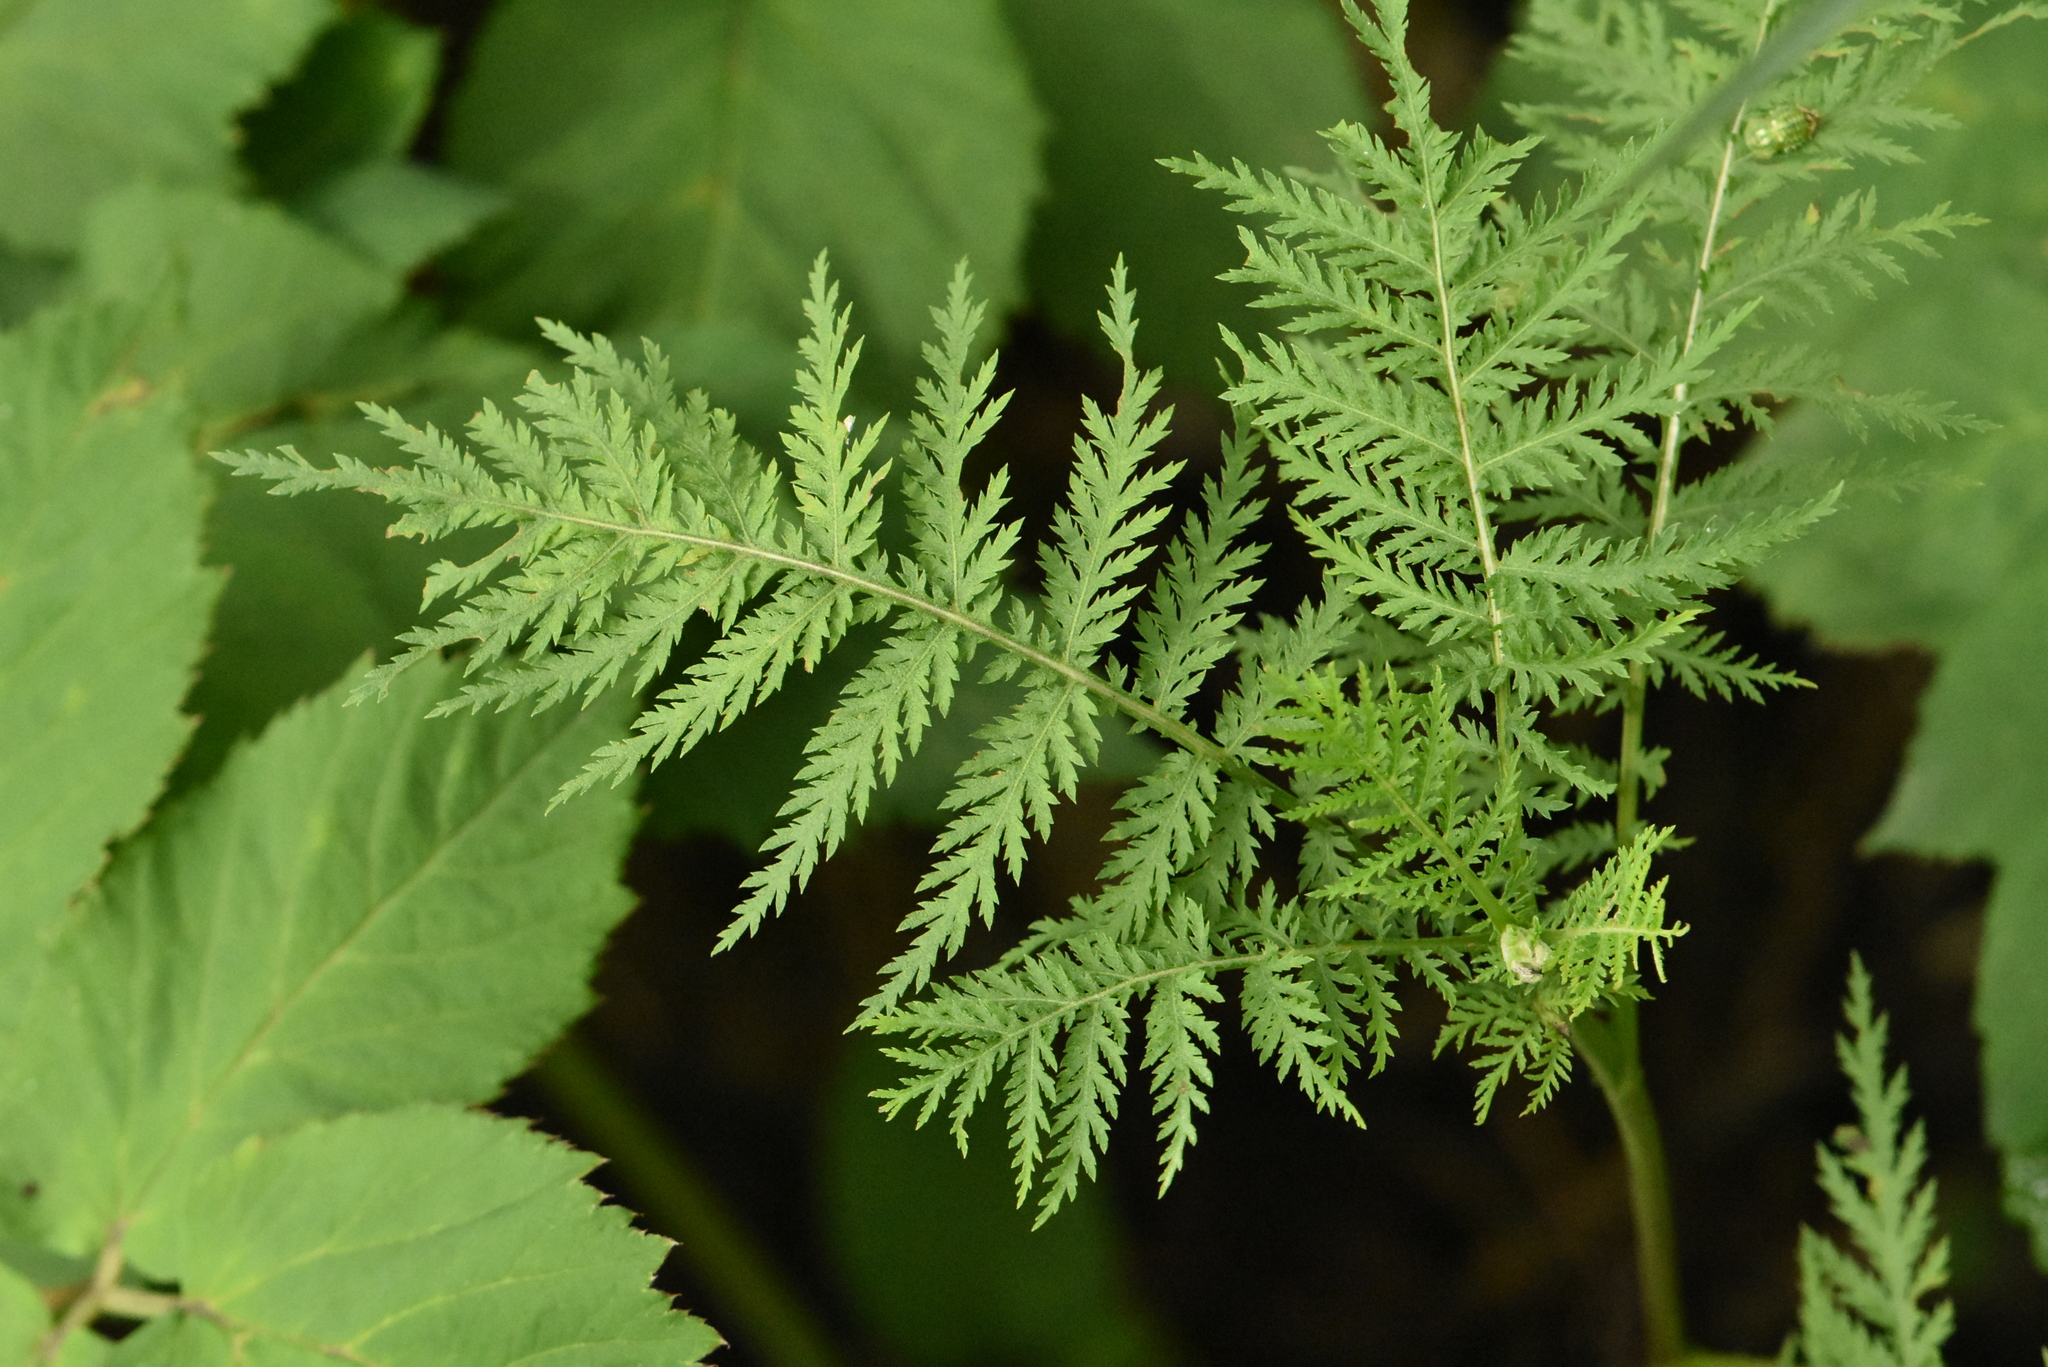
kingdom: Plantae
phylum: Tracheophyta
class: Magnoliopsida
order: Asterales
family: Asteraceae
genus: Artemisia
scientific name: Artemisia gmelinii
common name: Gmelin's wormwood
